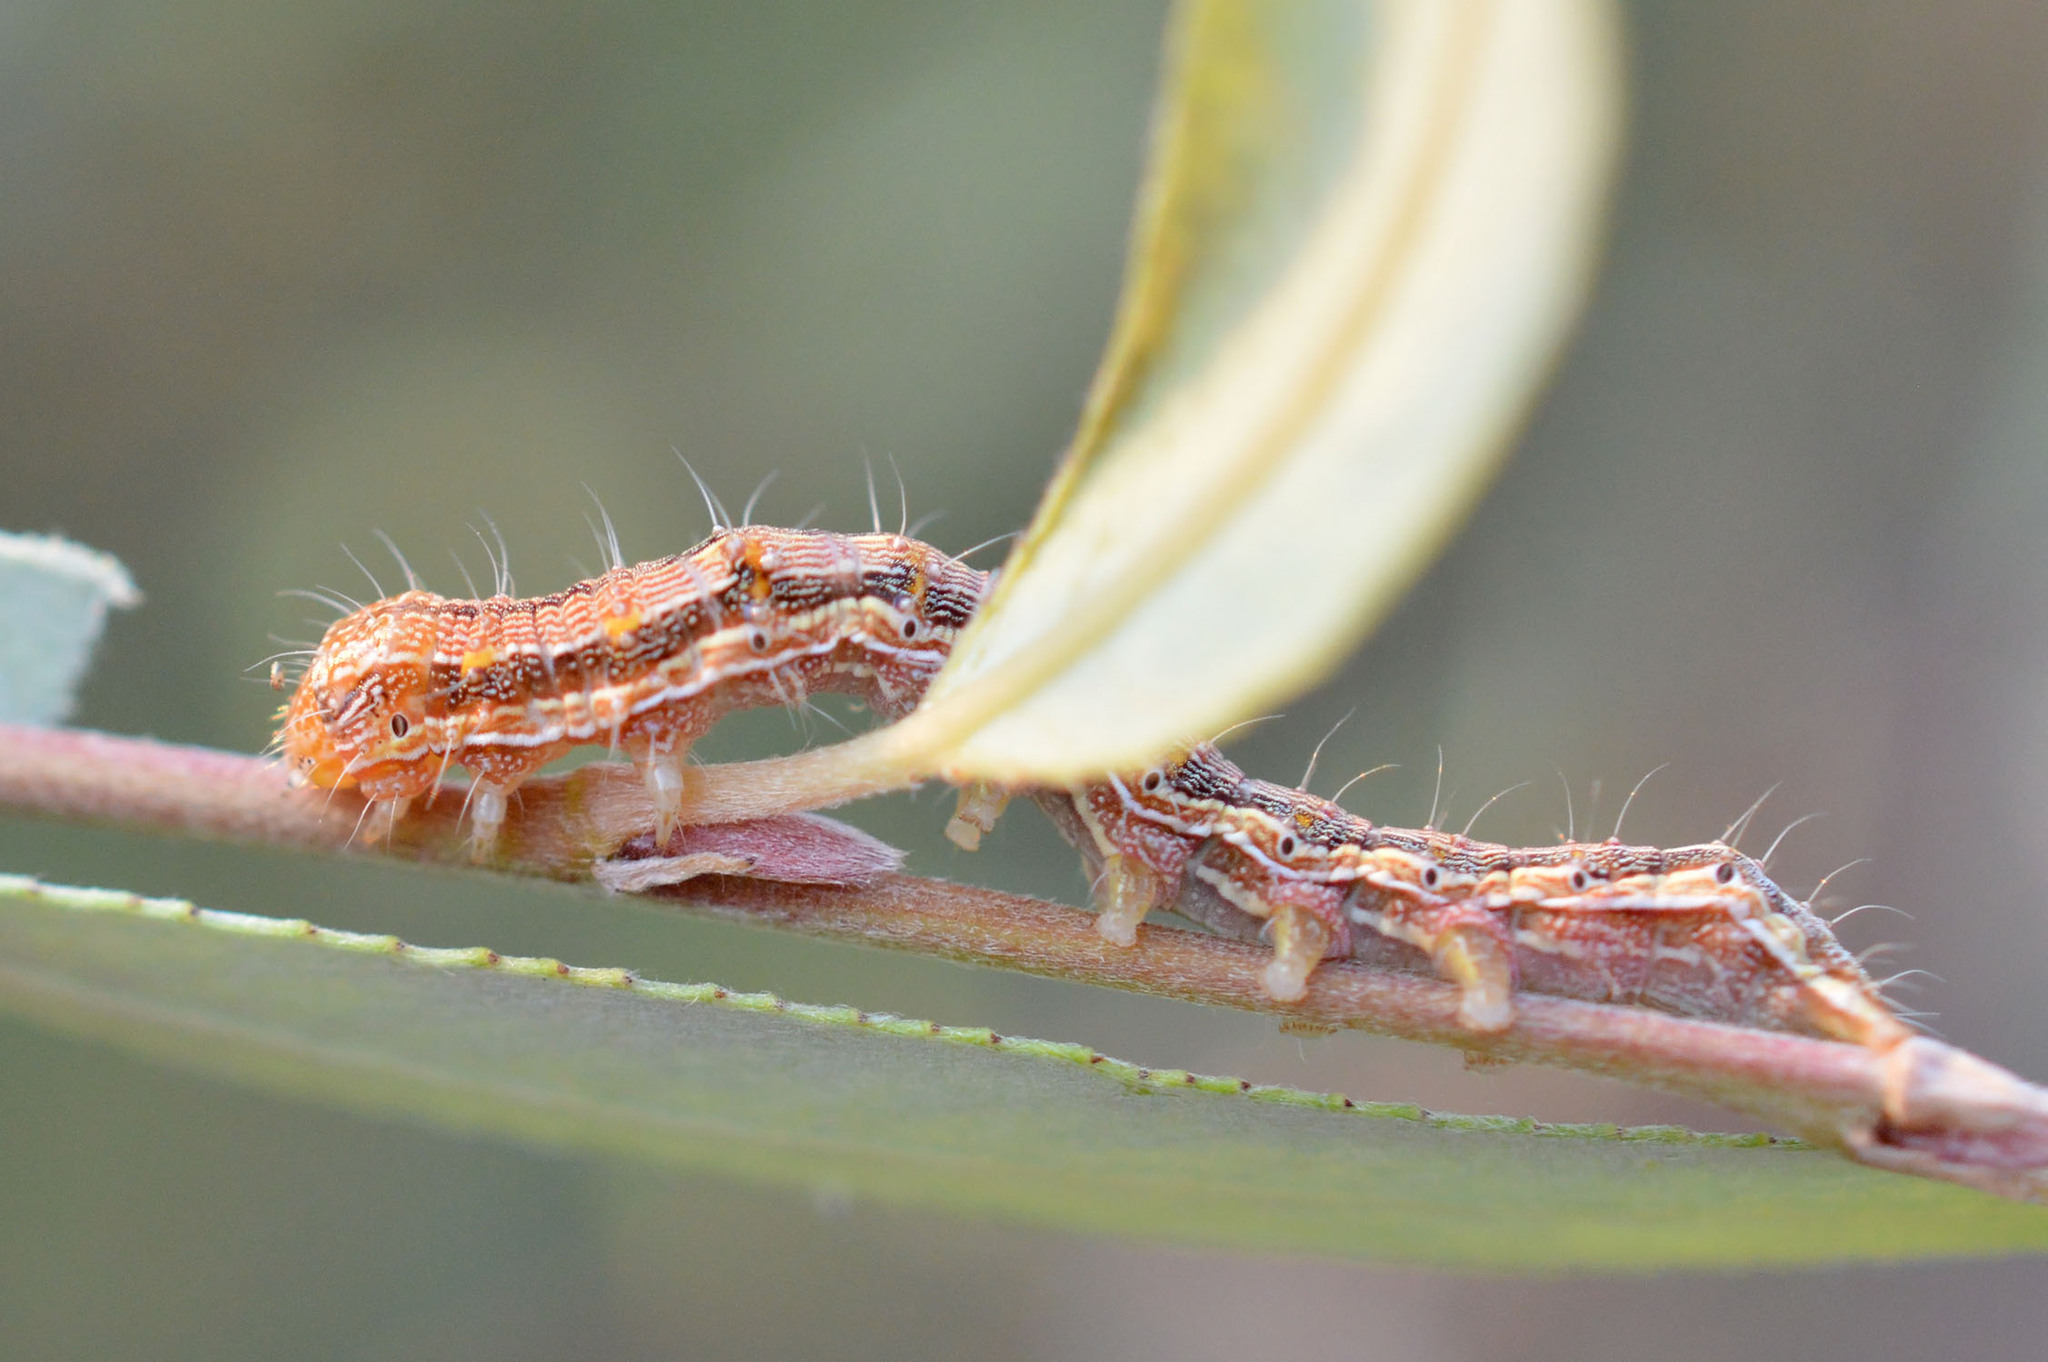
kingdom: Animalia
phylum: Arthropoda
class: Insecta
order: Lepidoptera
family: Noctuidae
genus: Helicoverpa
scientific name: Helicoverpa armigera
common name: Cotton bollworm
